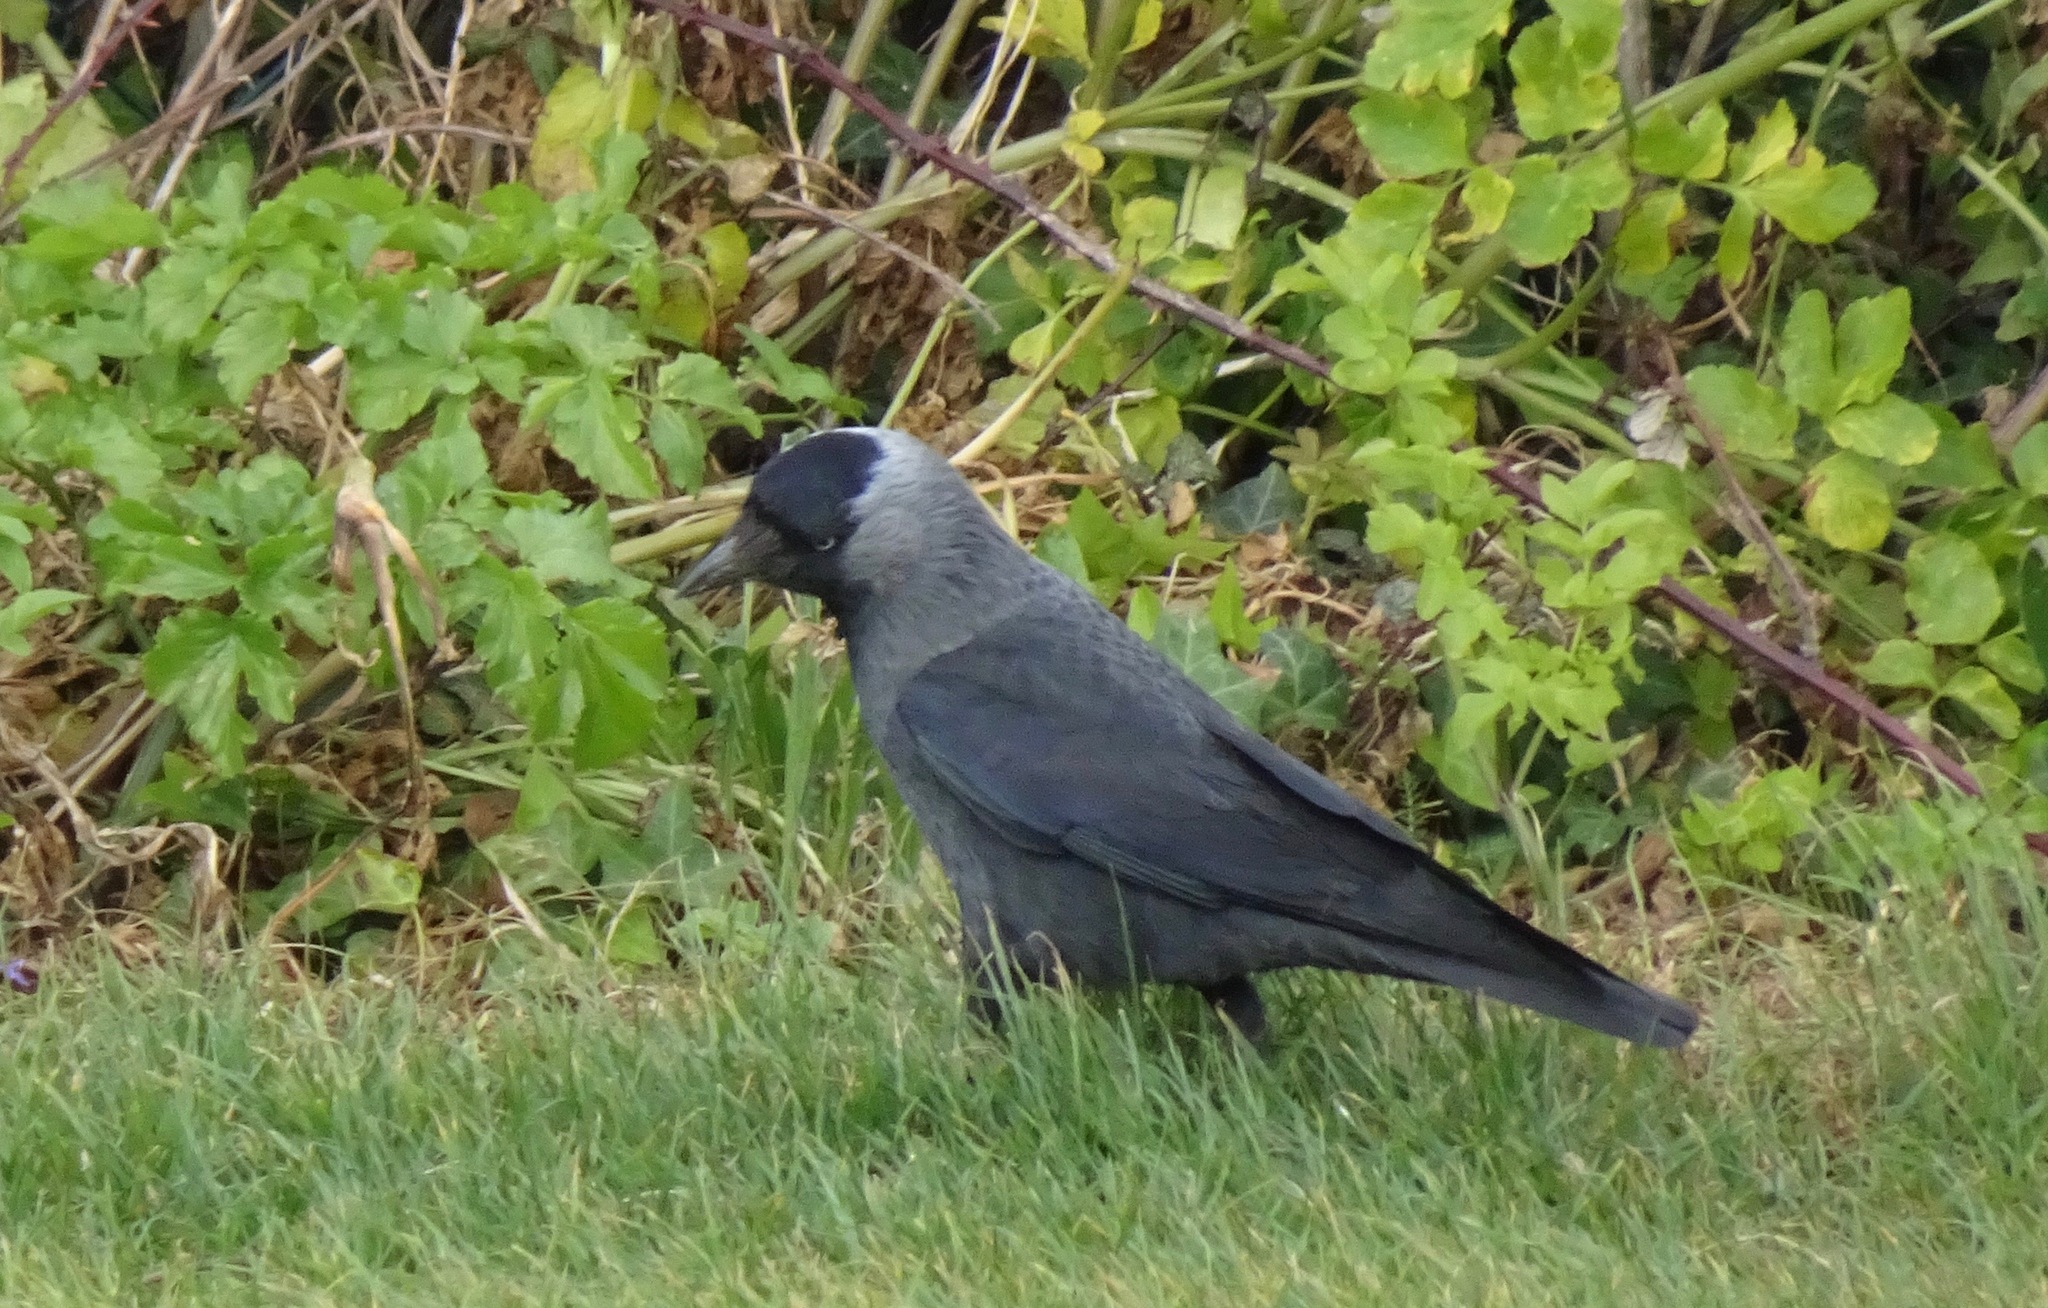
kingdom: Animalia
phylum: Chordata
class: Aves
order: Passeriformes
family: Corvidae
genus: Coloeus
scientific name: Coloeus monedula
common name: Western jackdaw
